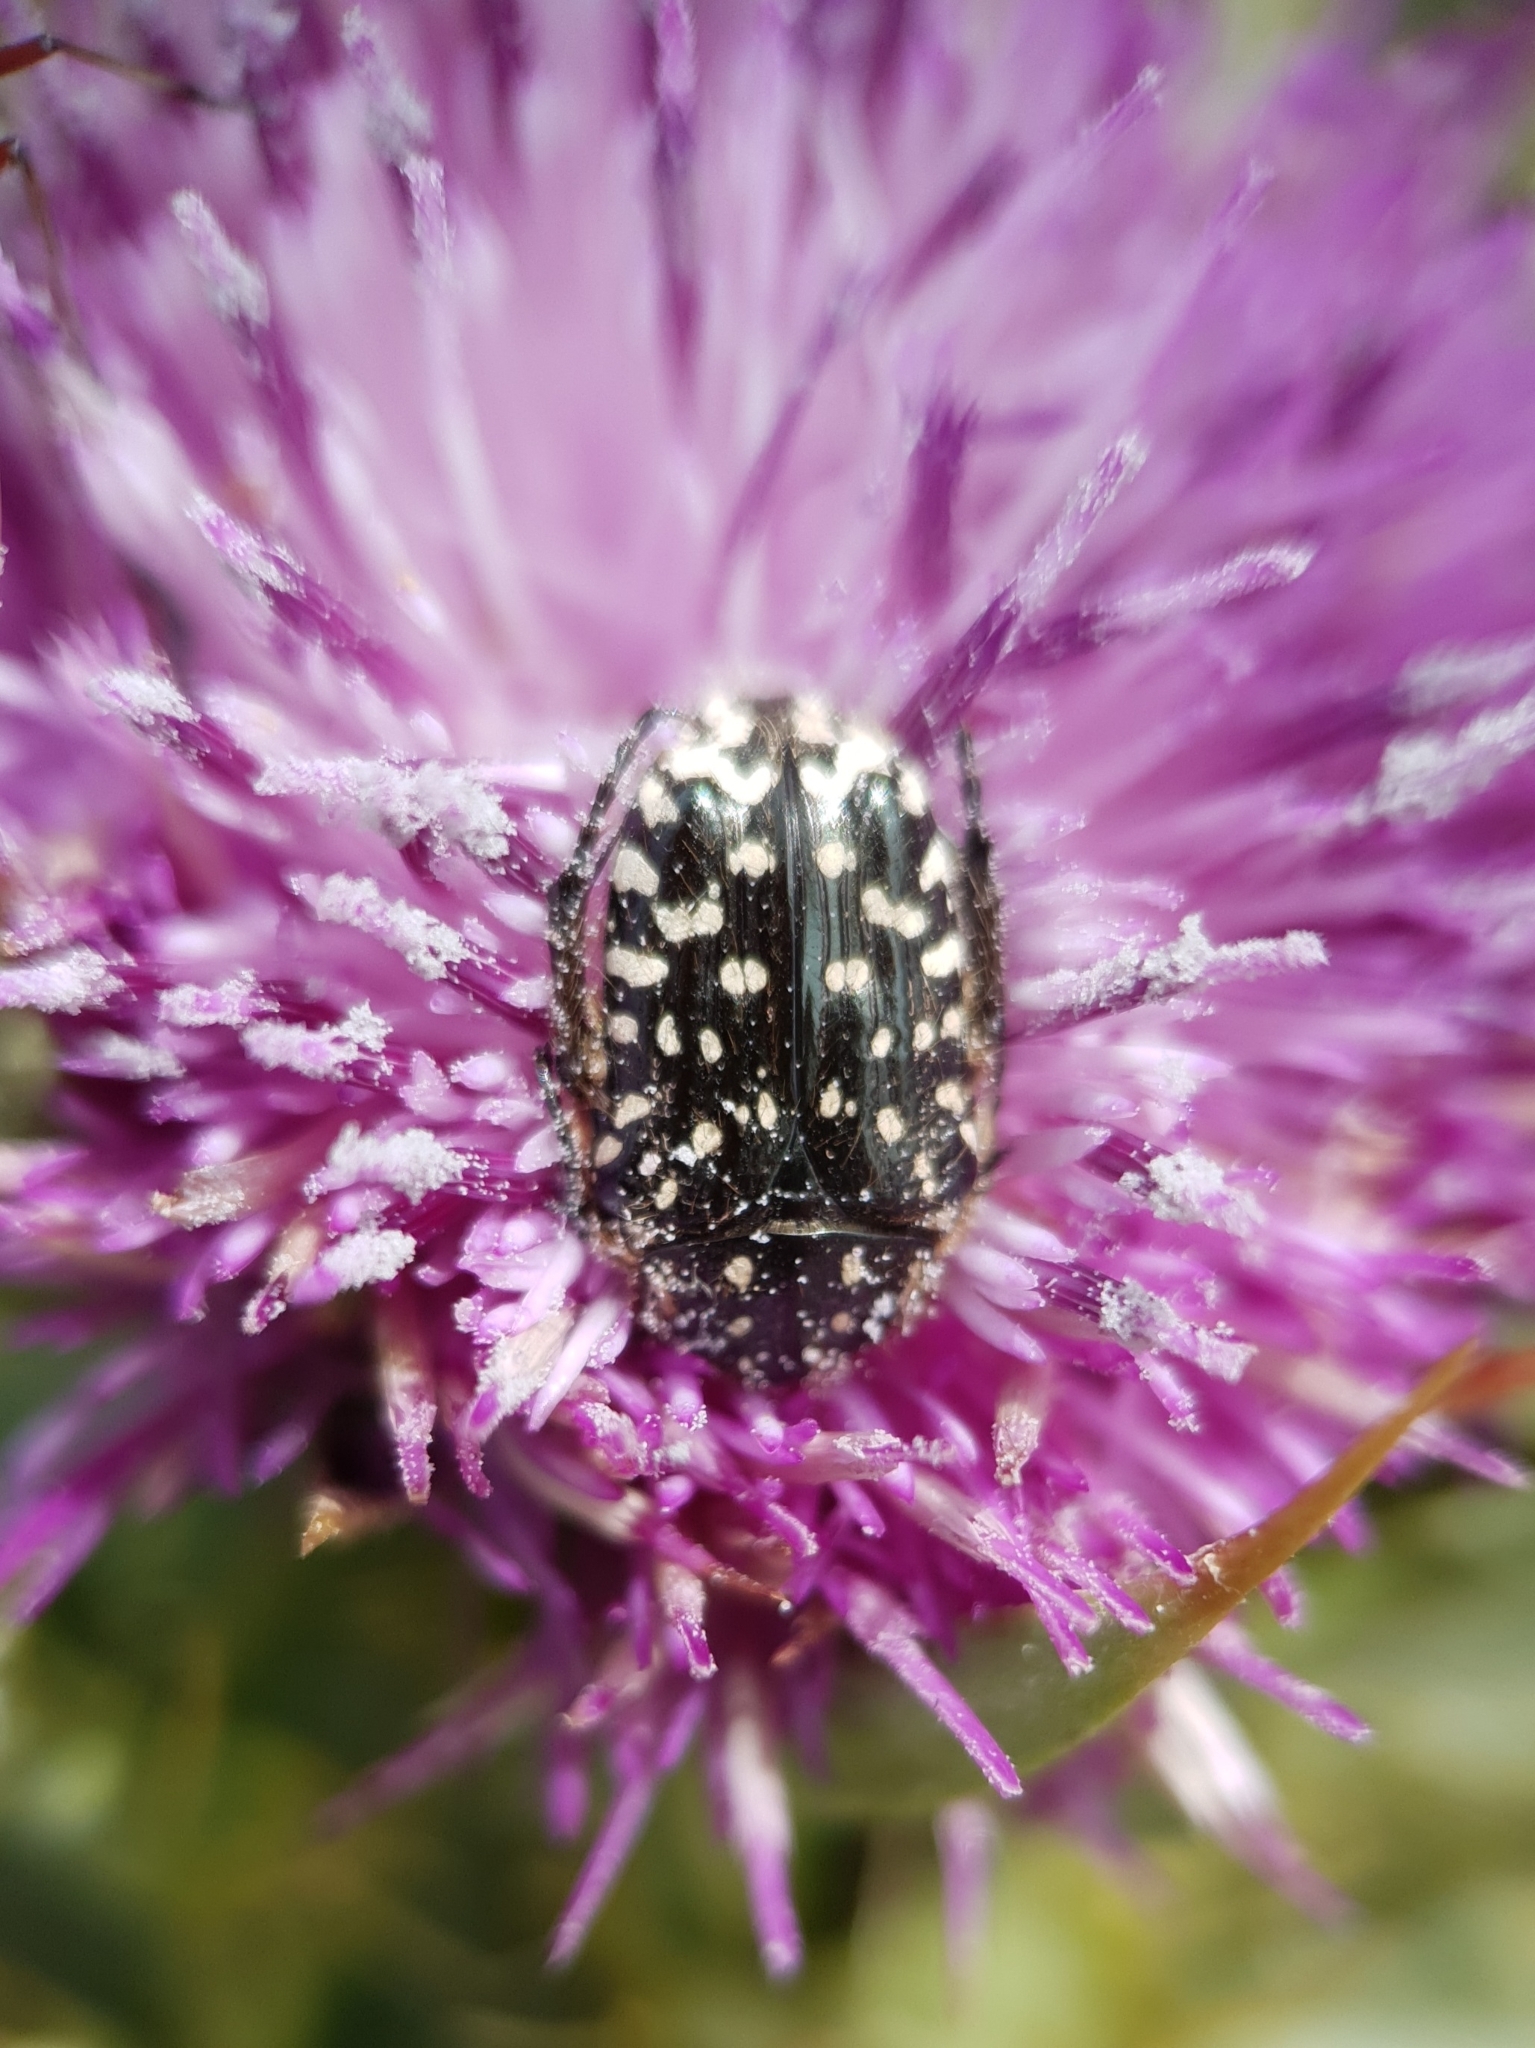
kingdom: Animalia
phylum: Arthropoda
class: Insecta
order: Coleoptera
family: Scarabaeidae
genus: Oxythyrea
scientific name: Oxythyrea funesta
